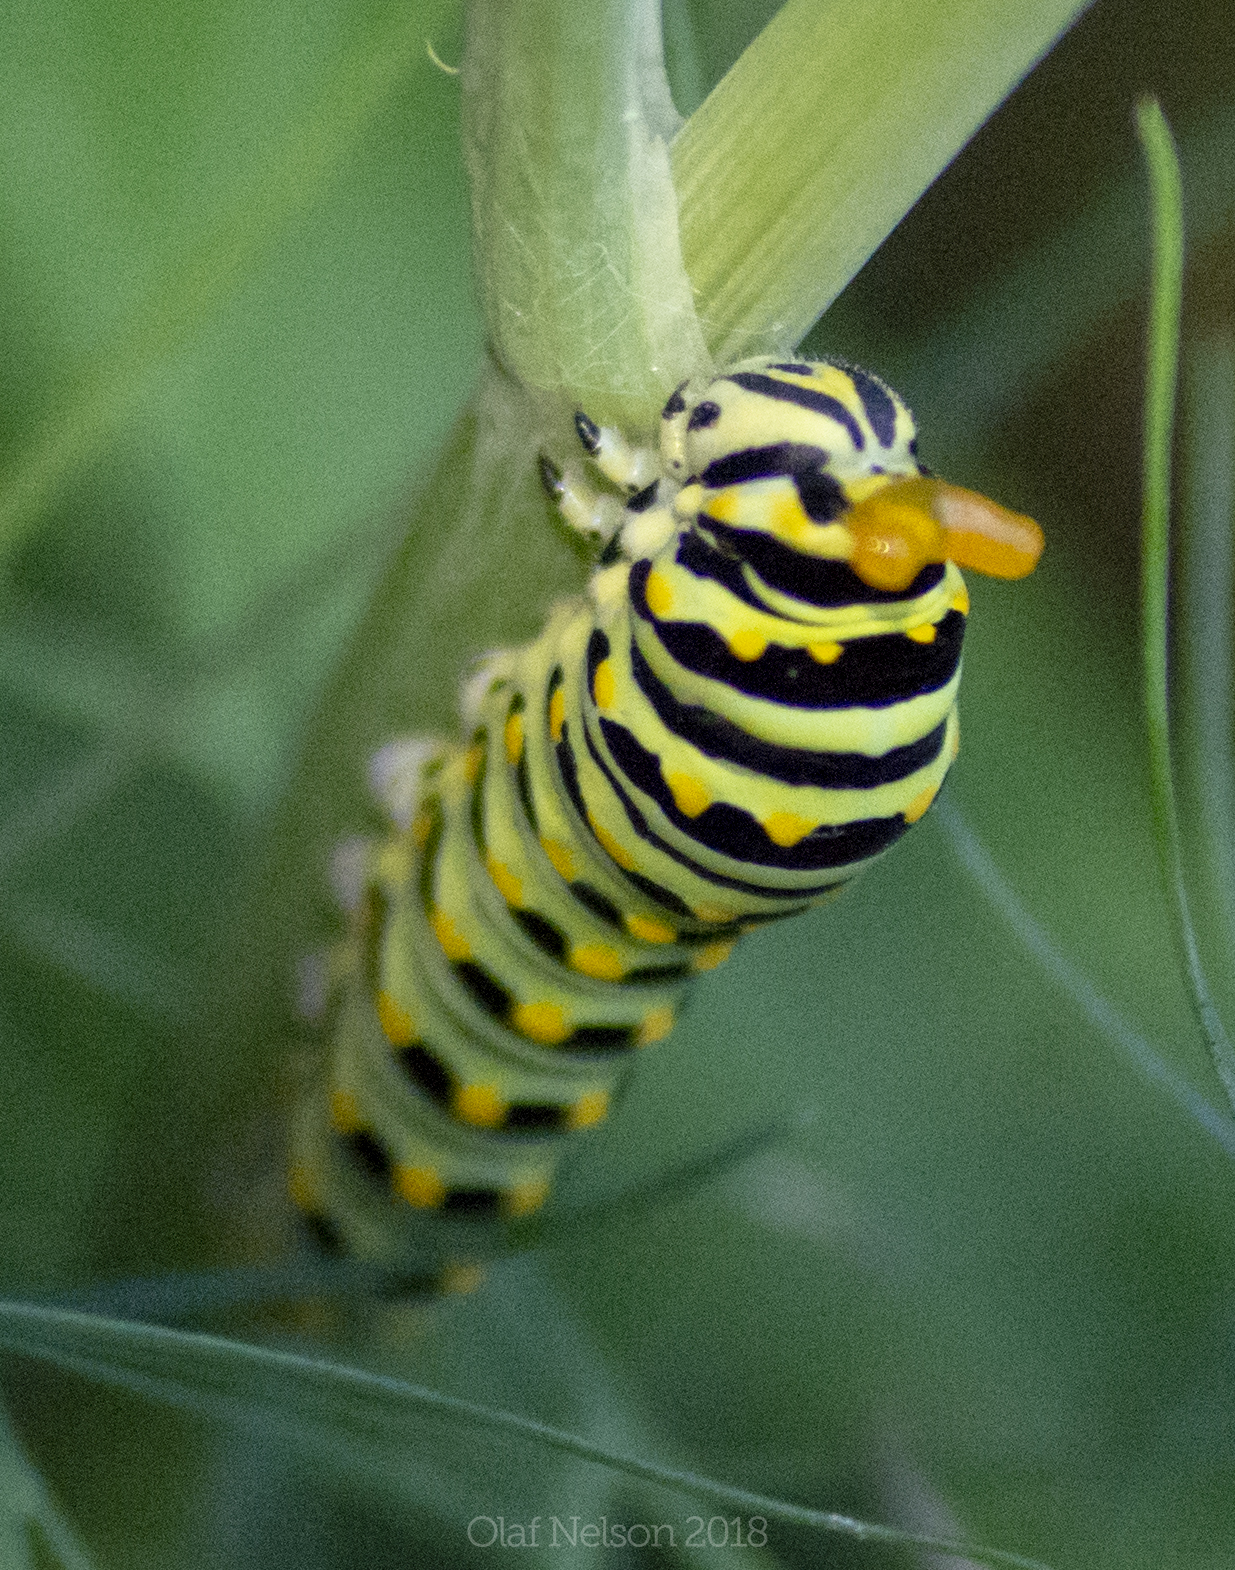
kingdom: Animalia
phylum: Arthropoda
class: Insecta
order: Lepidoptera
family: Papilionidae
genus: Papilio
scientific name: Papilio polyxenes
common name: Black swallowtail
